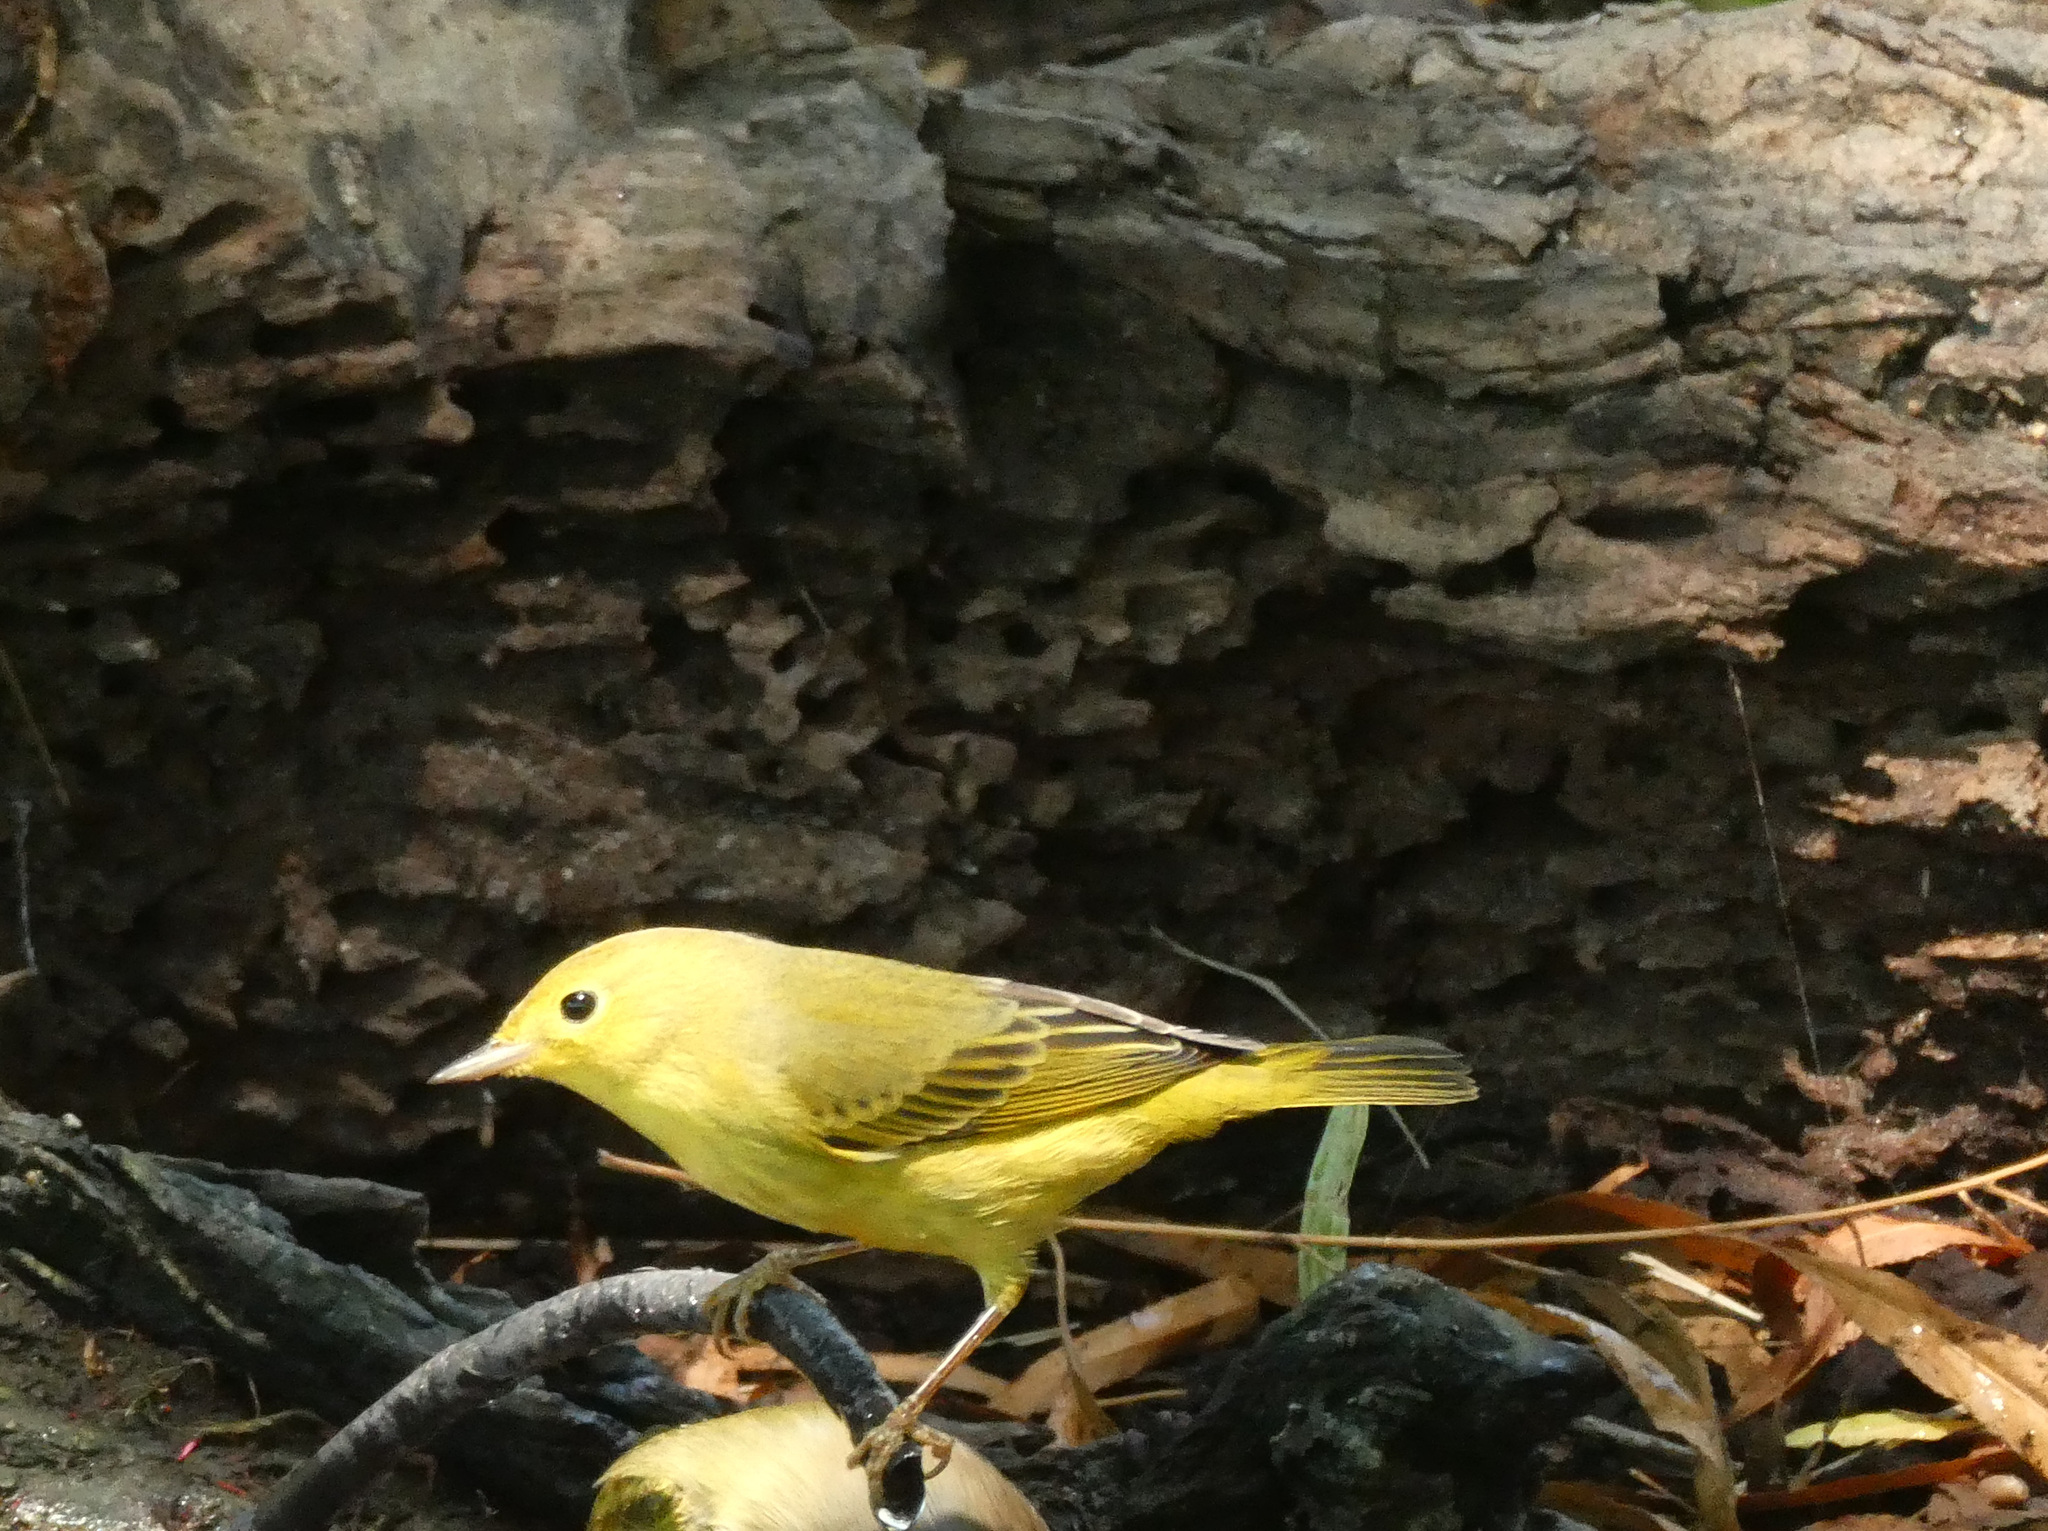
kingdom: Animalia
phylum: Chordata
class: Aves
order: Passeriformes
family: Parulidae
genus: Setophaga
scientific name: Setophaga petechia
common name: Yellow warbler
